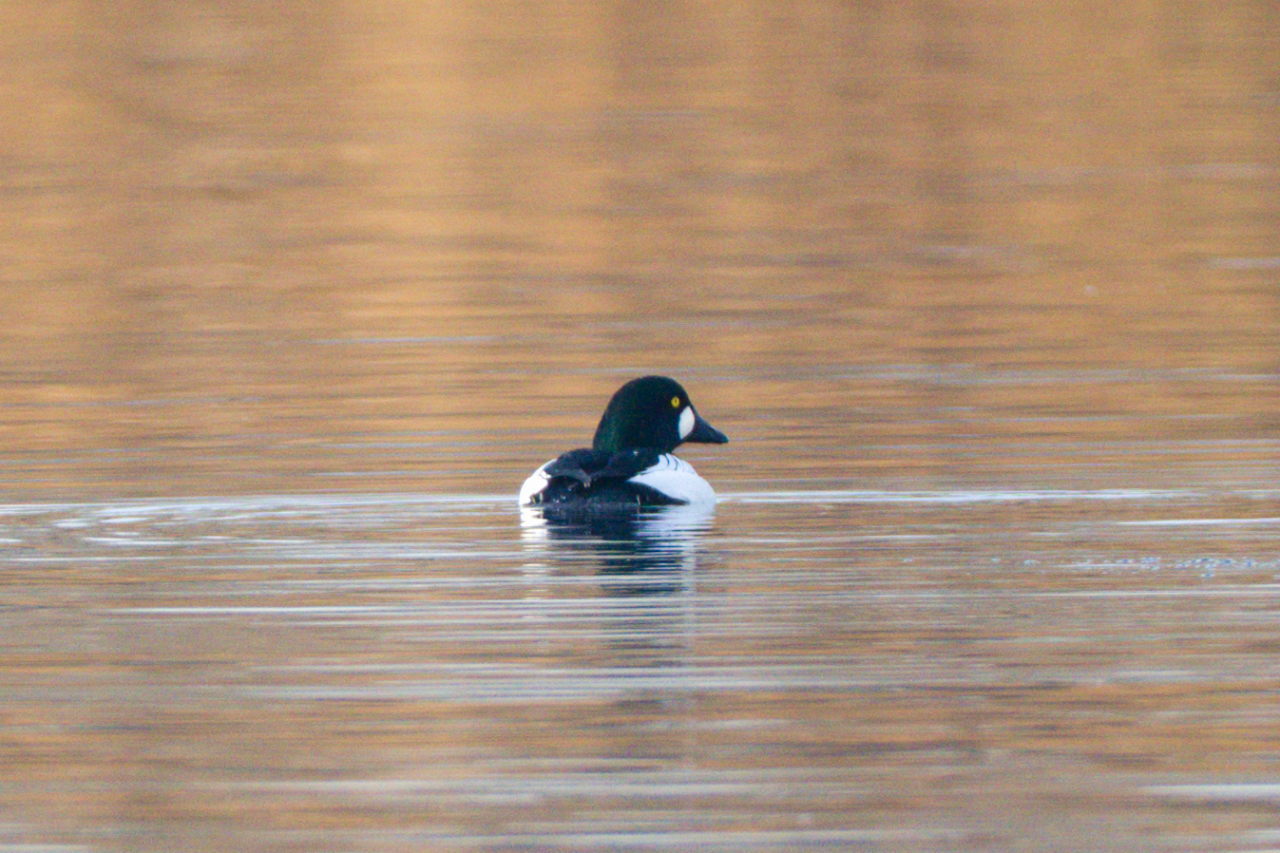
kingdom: Animalia
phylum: Chordata
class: Aves
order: Anseriformes
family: Anatidae
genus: Bucephala
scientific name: Bucephala clangula
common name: Common goldeneye
